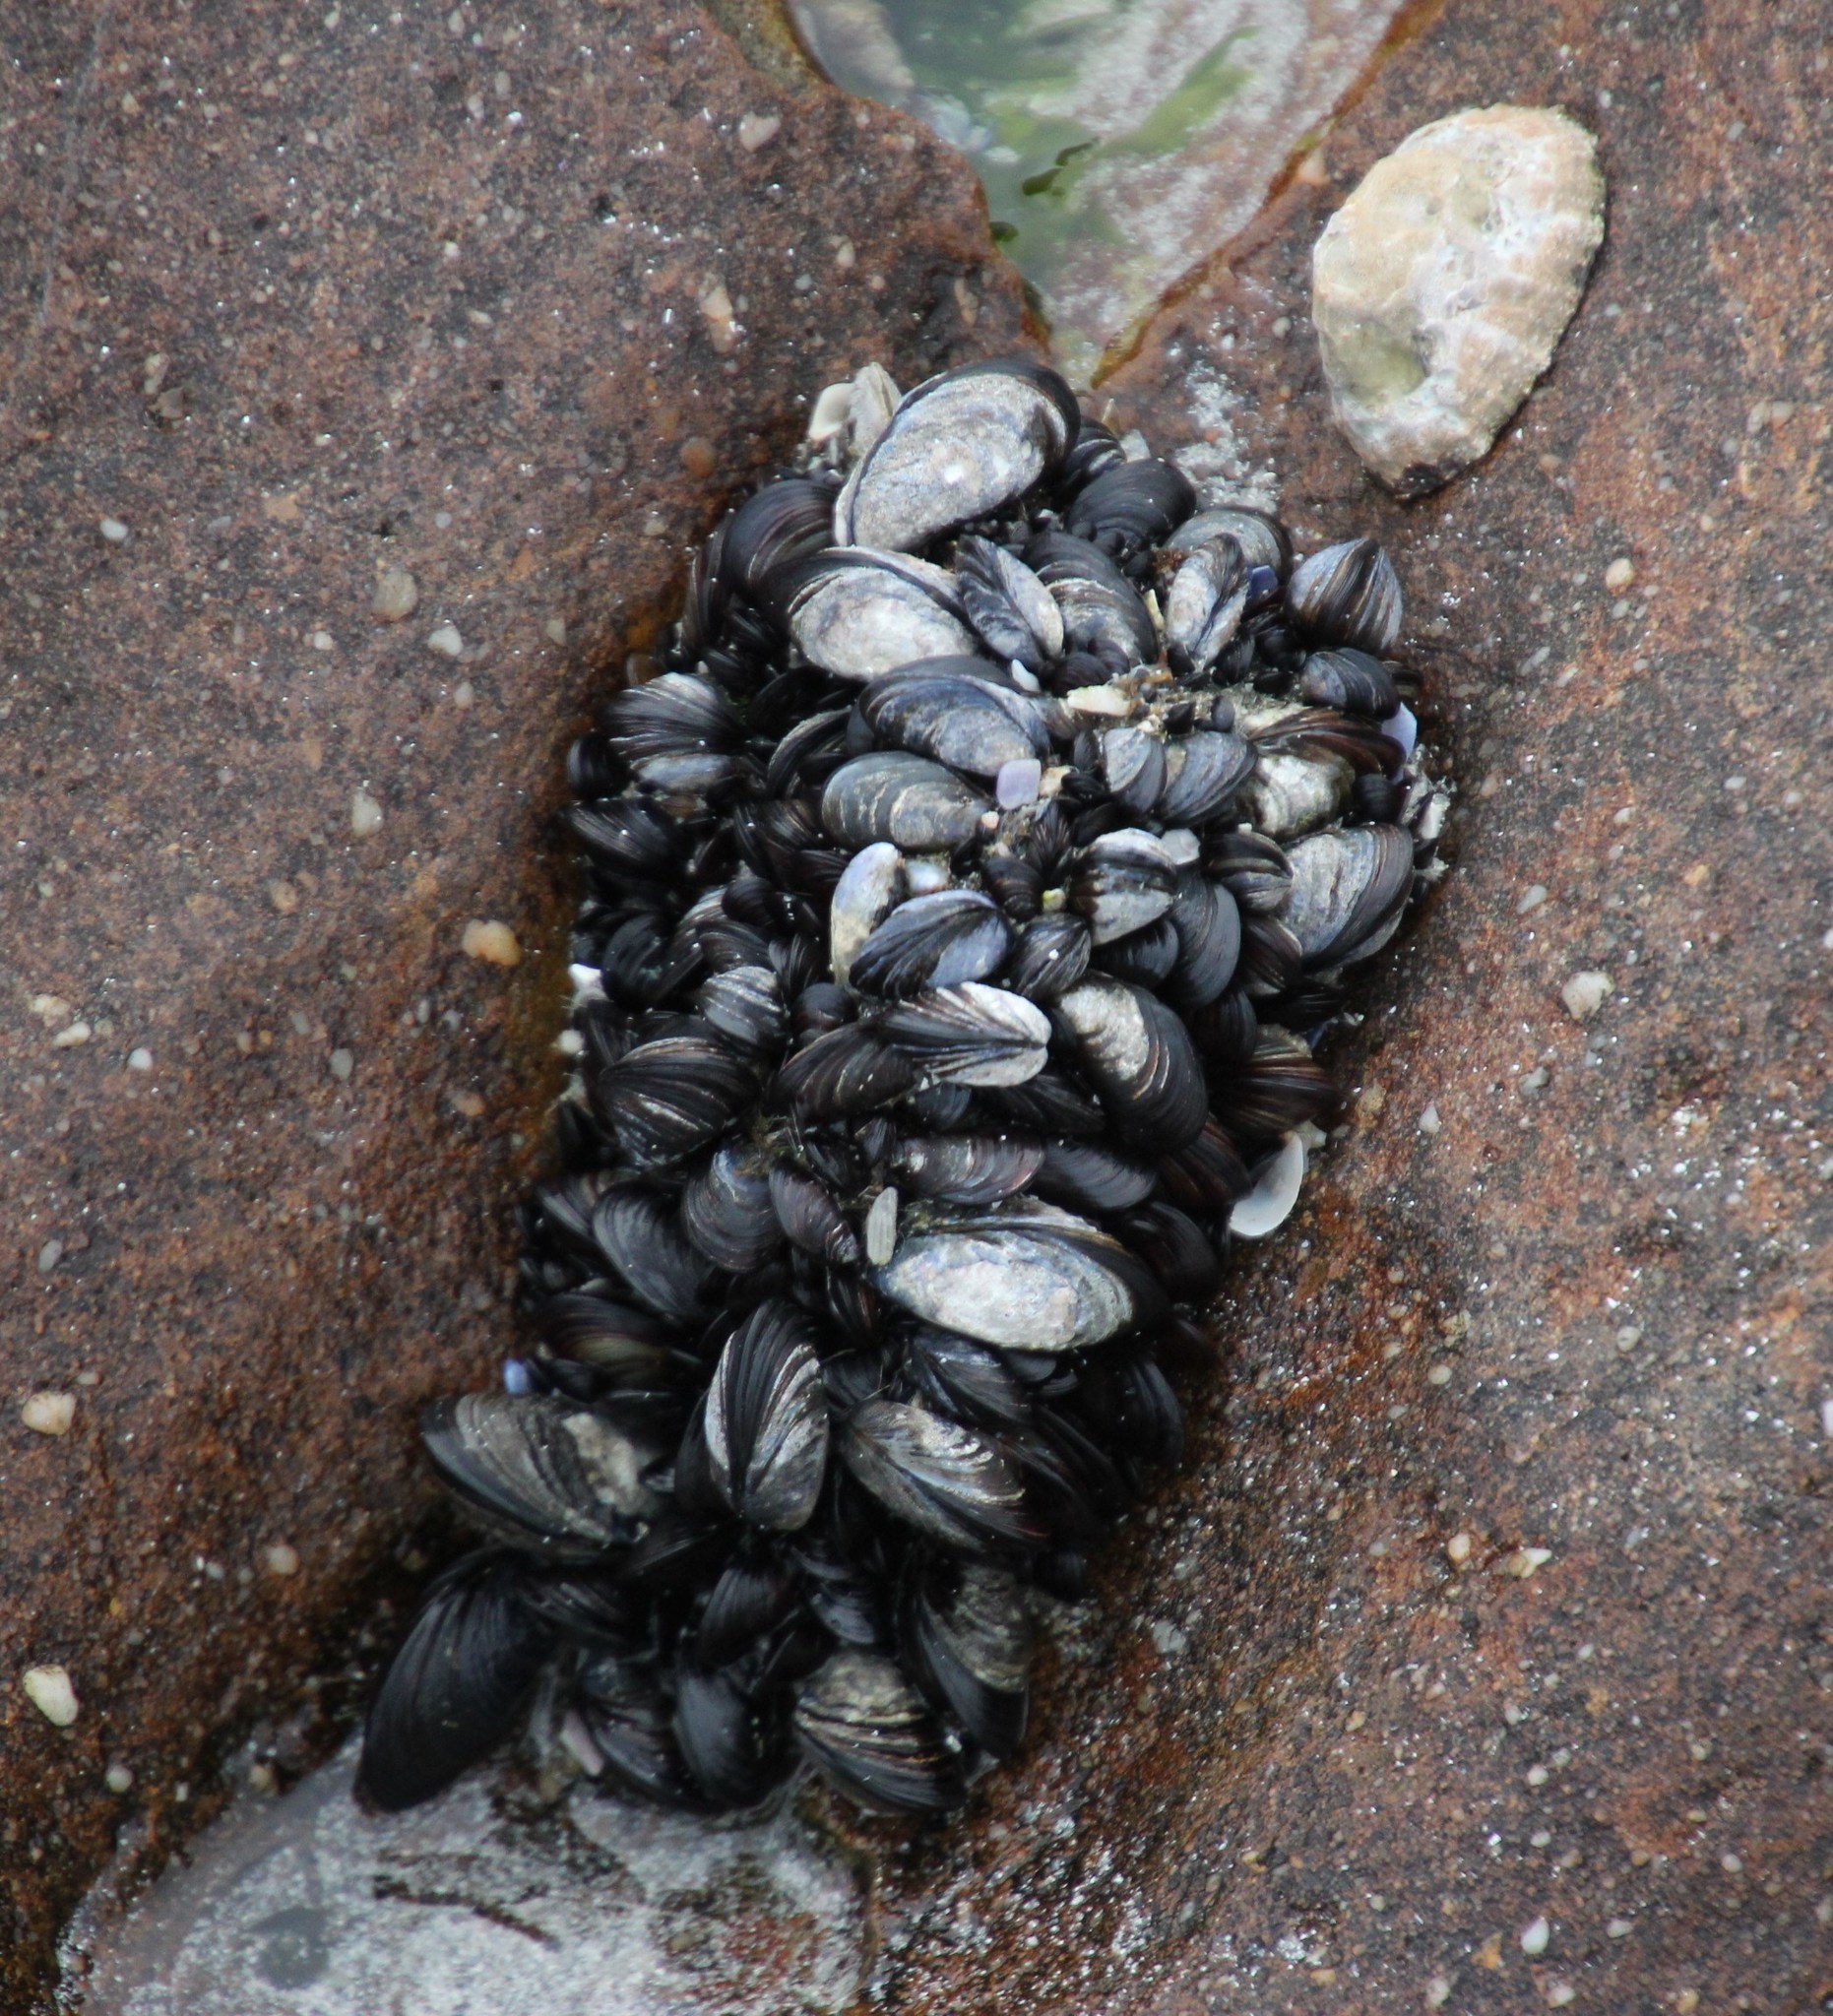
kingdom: Animalia
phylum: Mollusca
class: Bivalvia
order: Mytilida
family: Mytilidae
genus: Mytilus
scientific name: Mytilus galloprovincialis
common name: Mediterranean mussel
